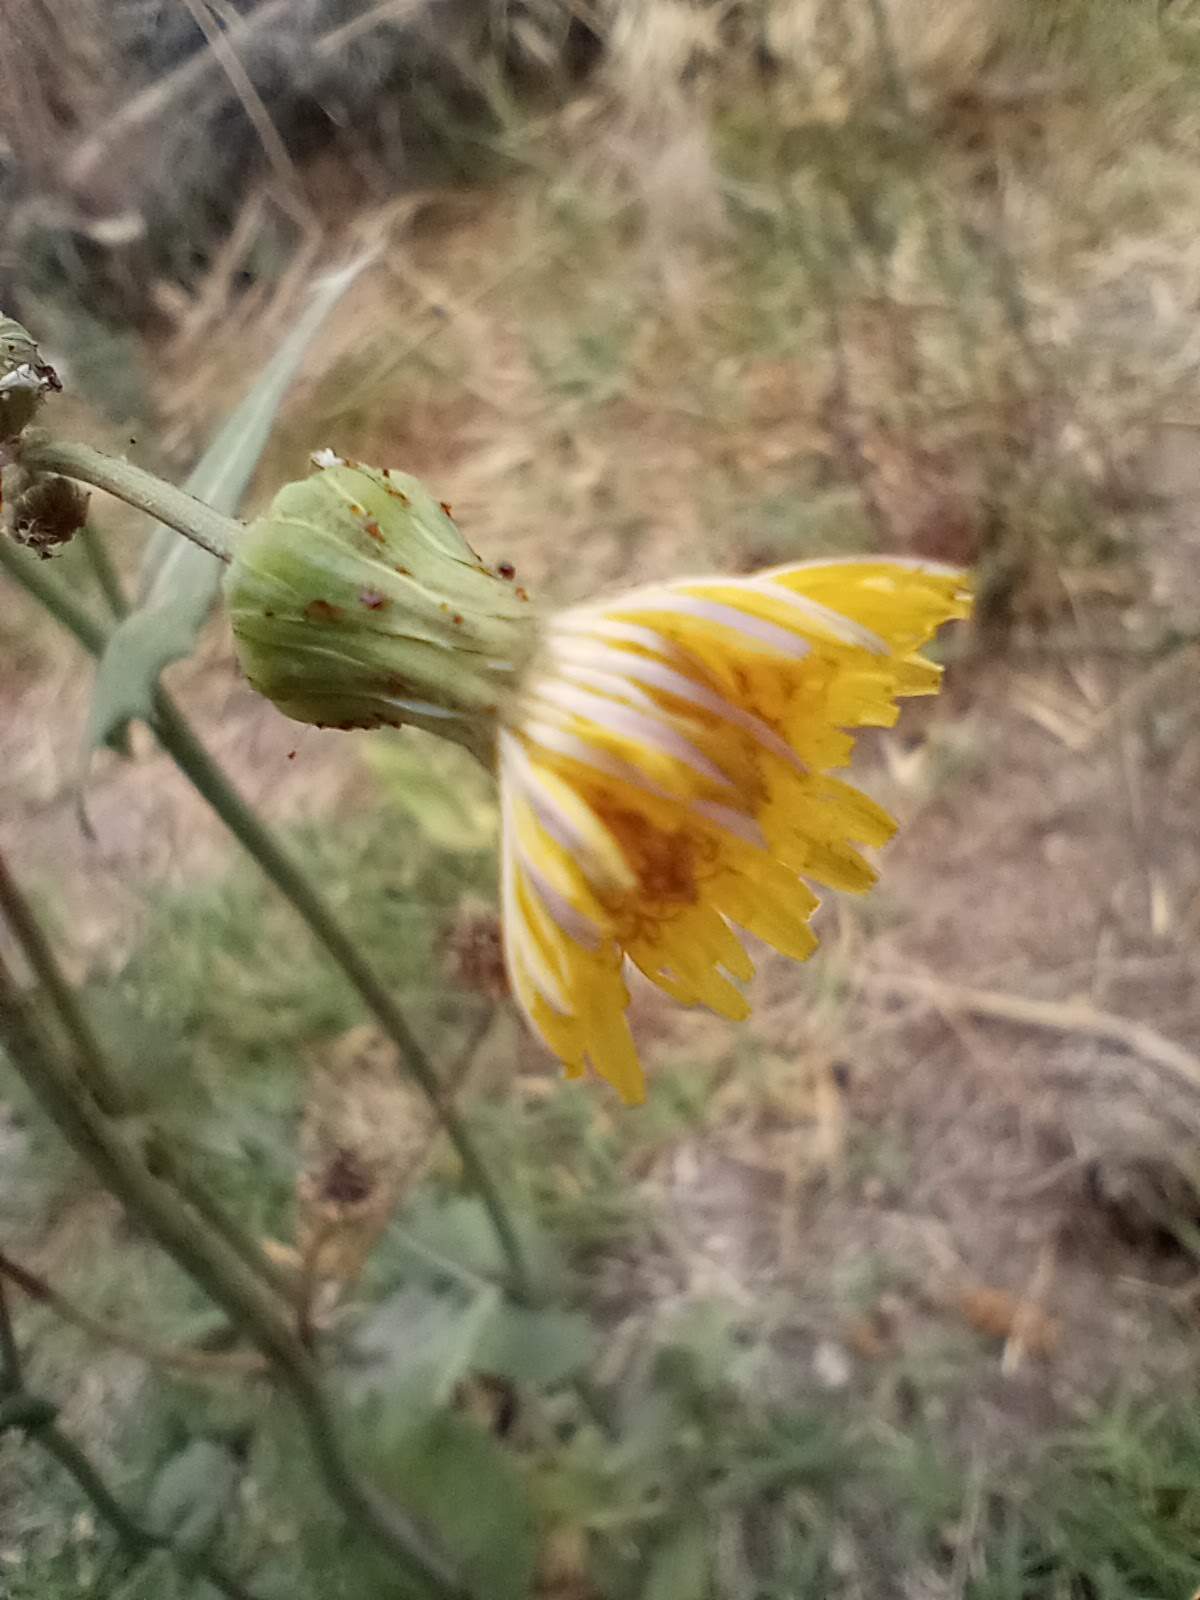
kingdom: Plantae
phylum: Tracheophyta
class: Magnoliopsida
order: Asterales
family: Asteraceae
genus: Sonchus
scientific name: Sonchus oleraceus
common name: Common sowthistle
